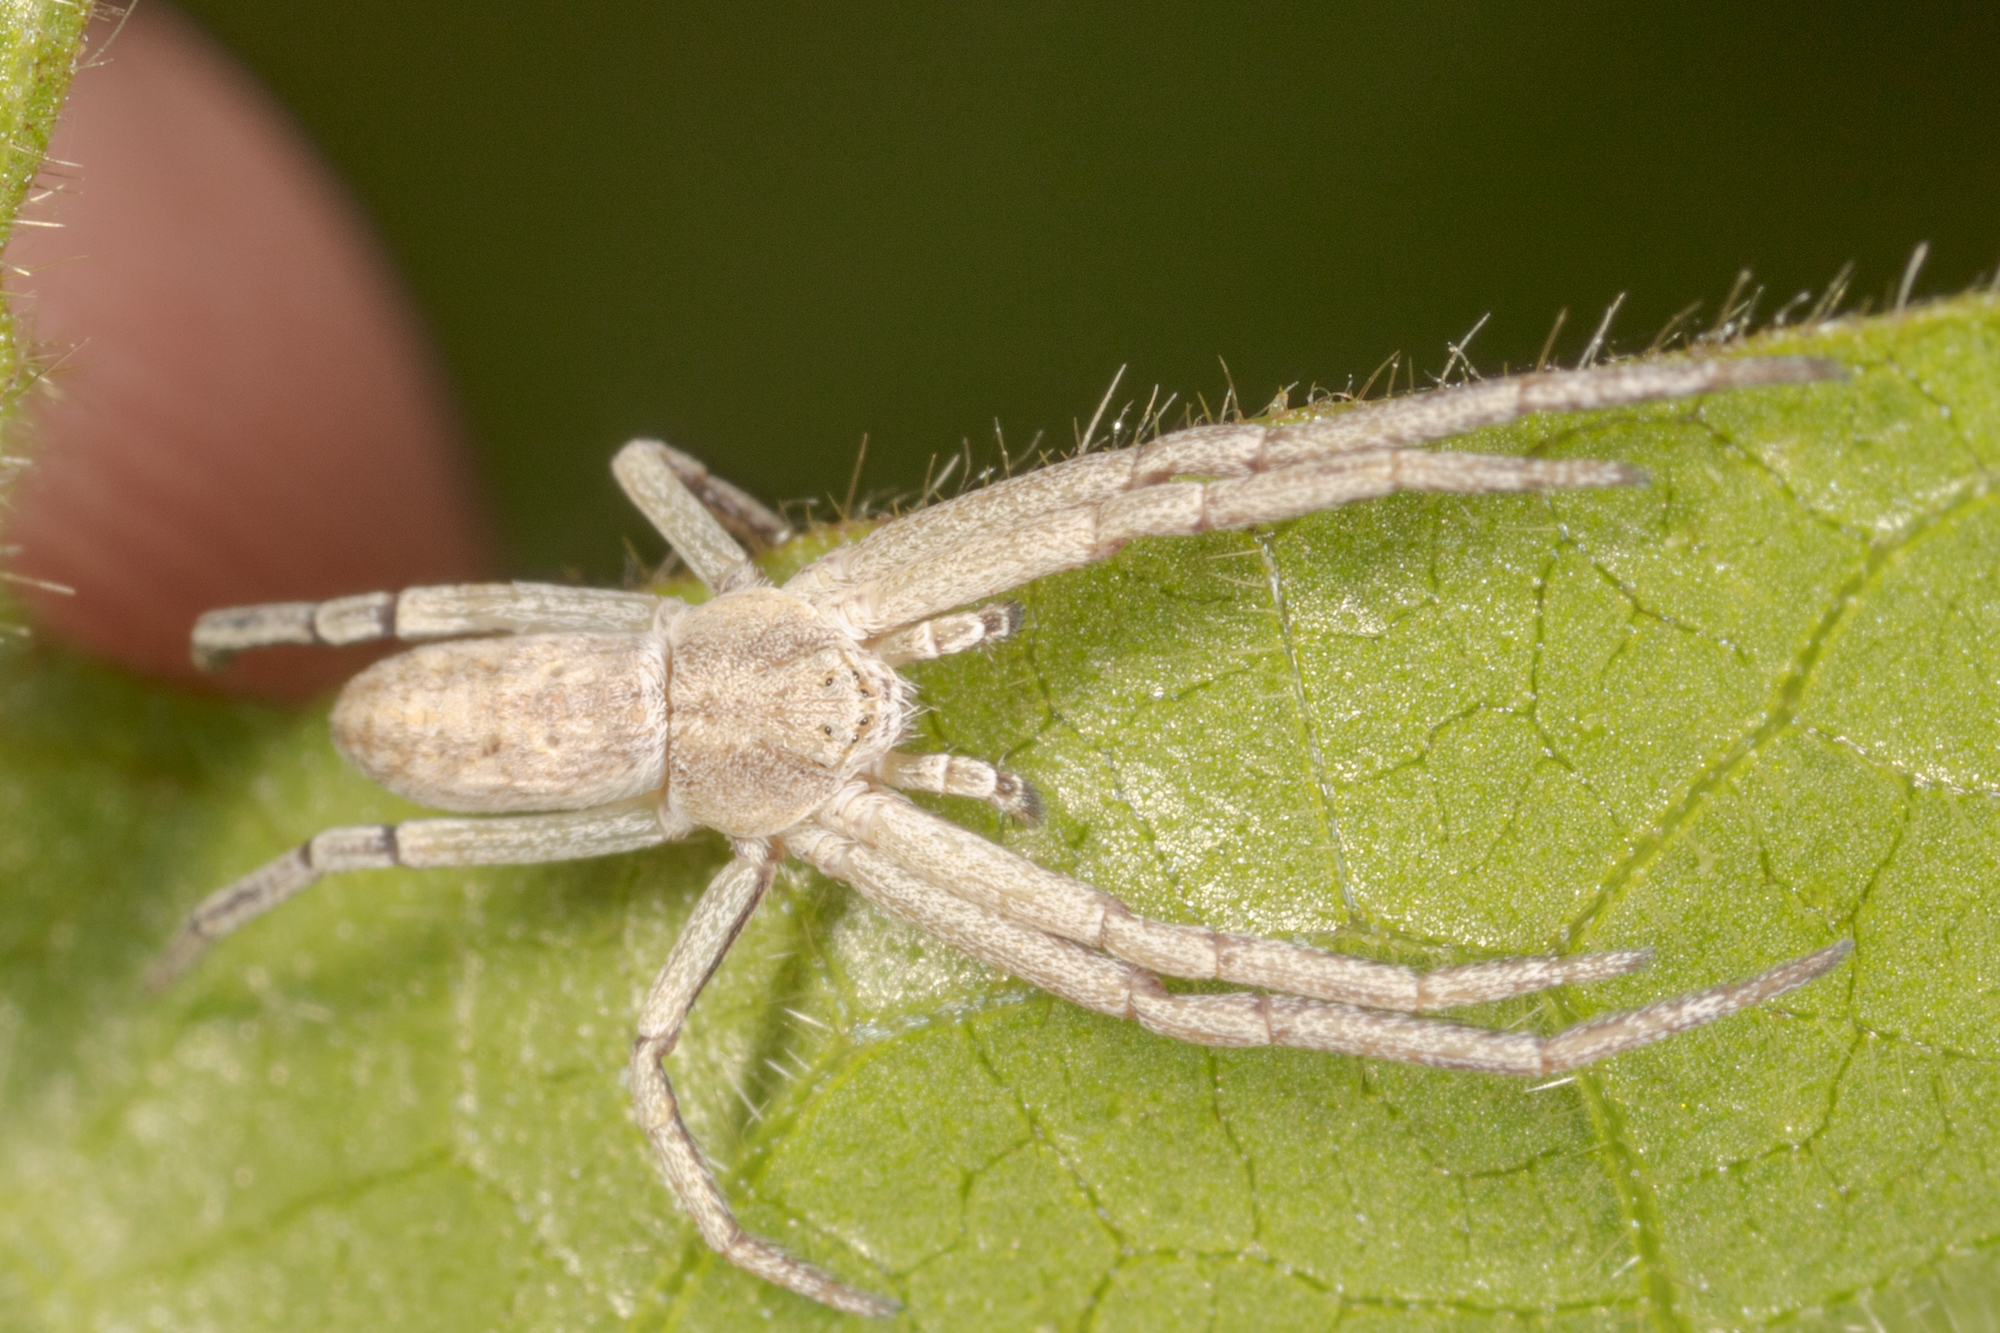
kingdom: Animalia
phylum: Arthropoda
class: Arachnida
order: Araneae
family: Philodromidae
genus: Philodromus
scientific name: Philodromus pratariae
